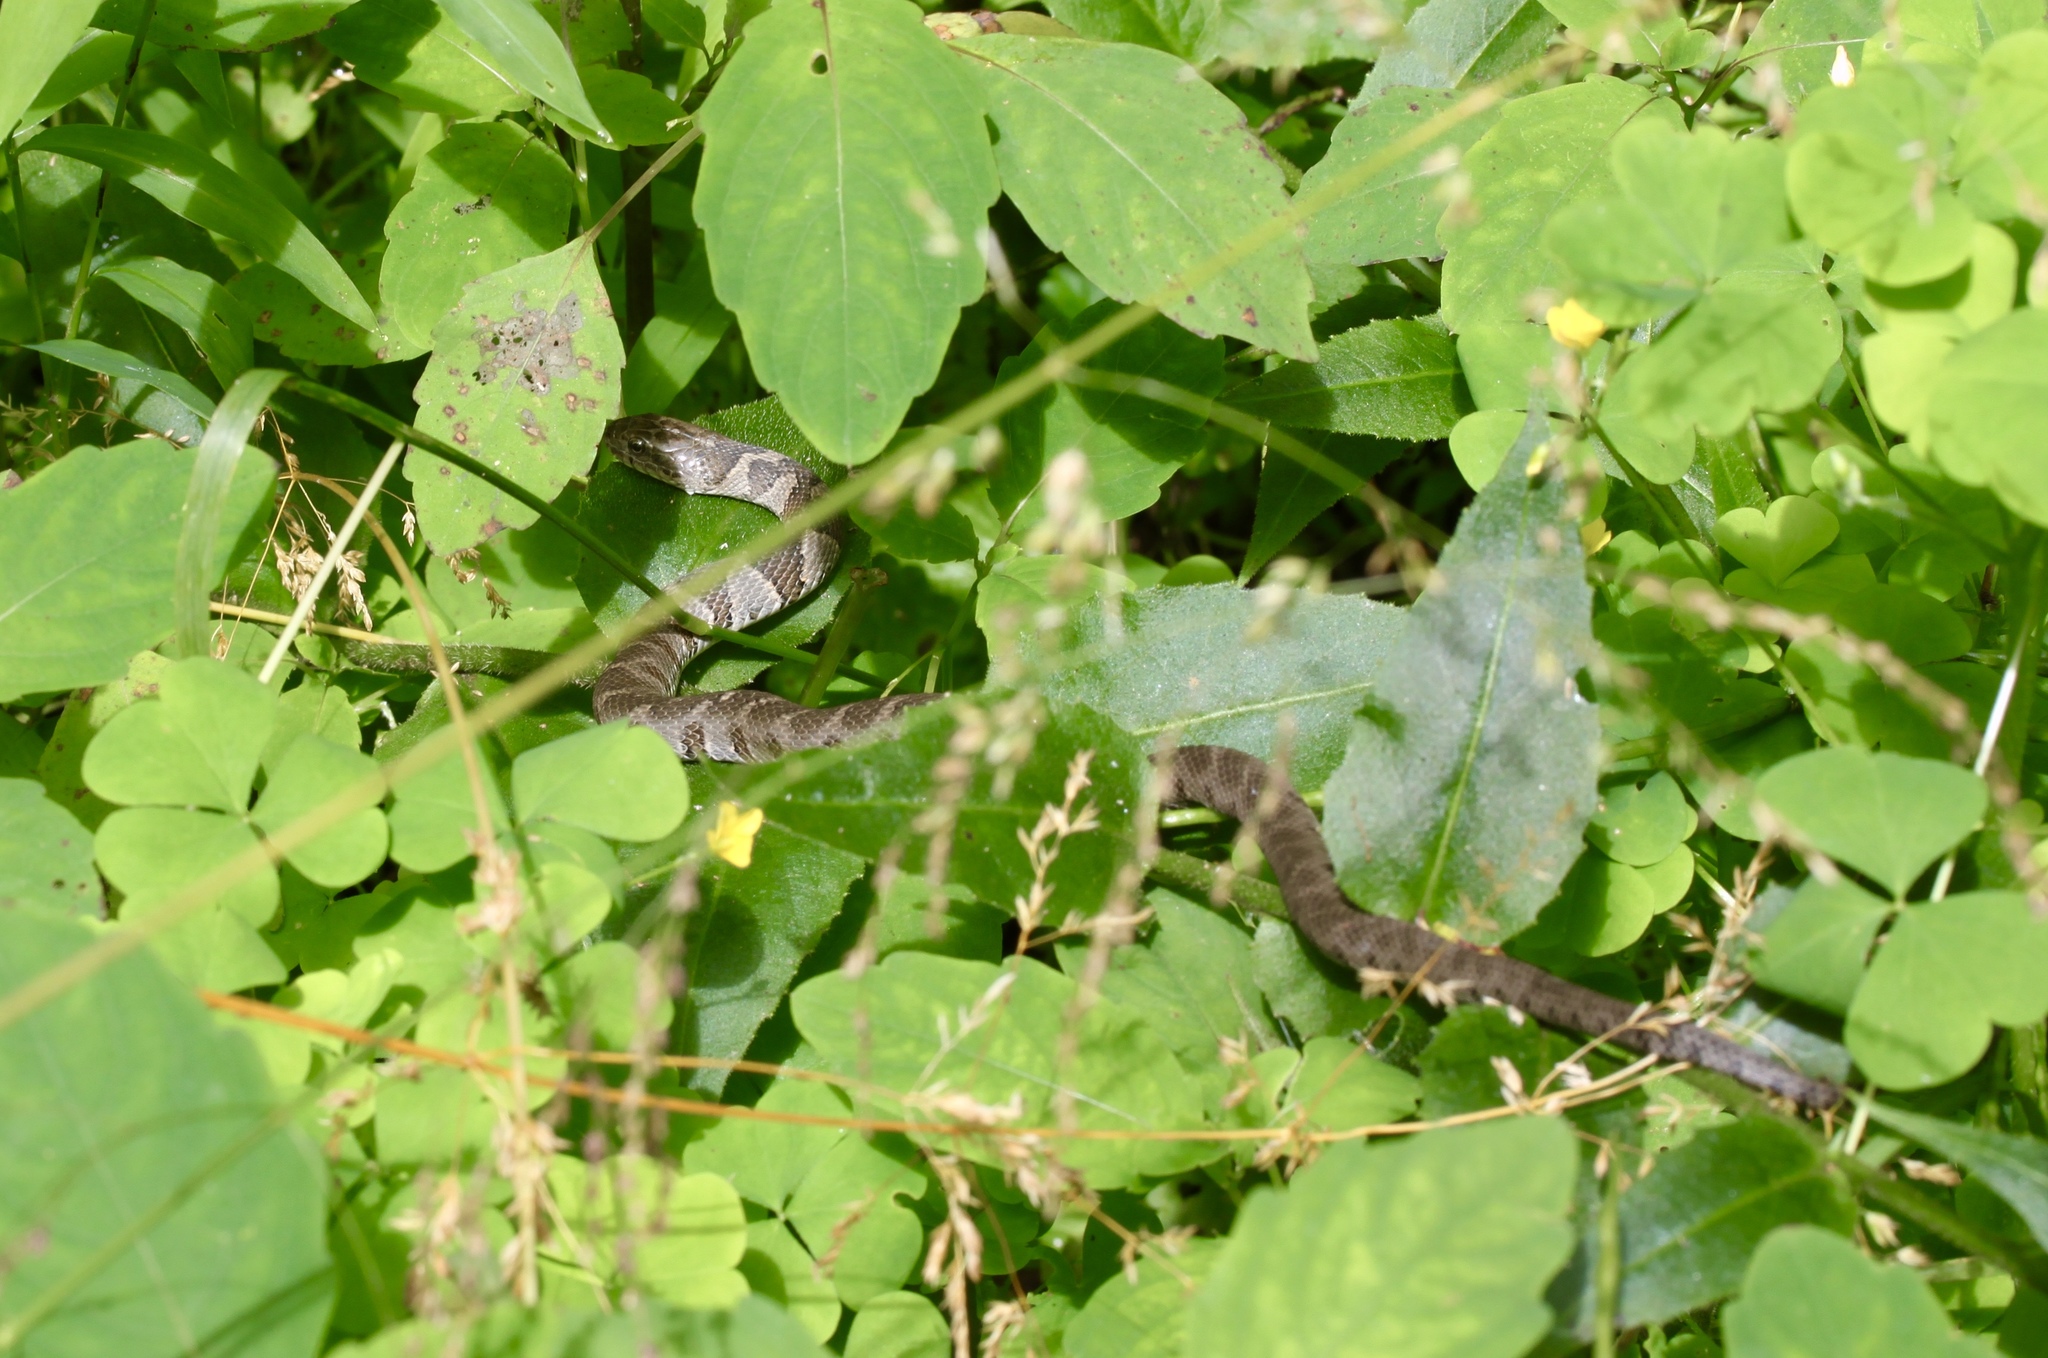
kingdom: Animalia
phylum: Chordata
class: Squamata
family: Colubridae
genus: Nerodia
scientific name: Nerodia sipedon
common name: Northern water snake
